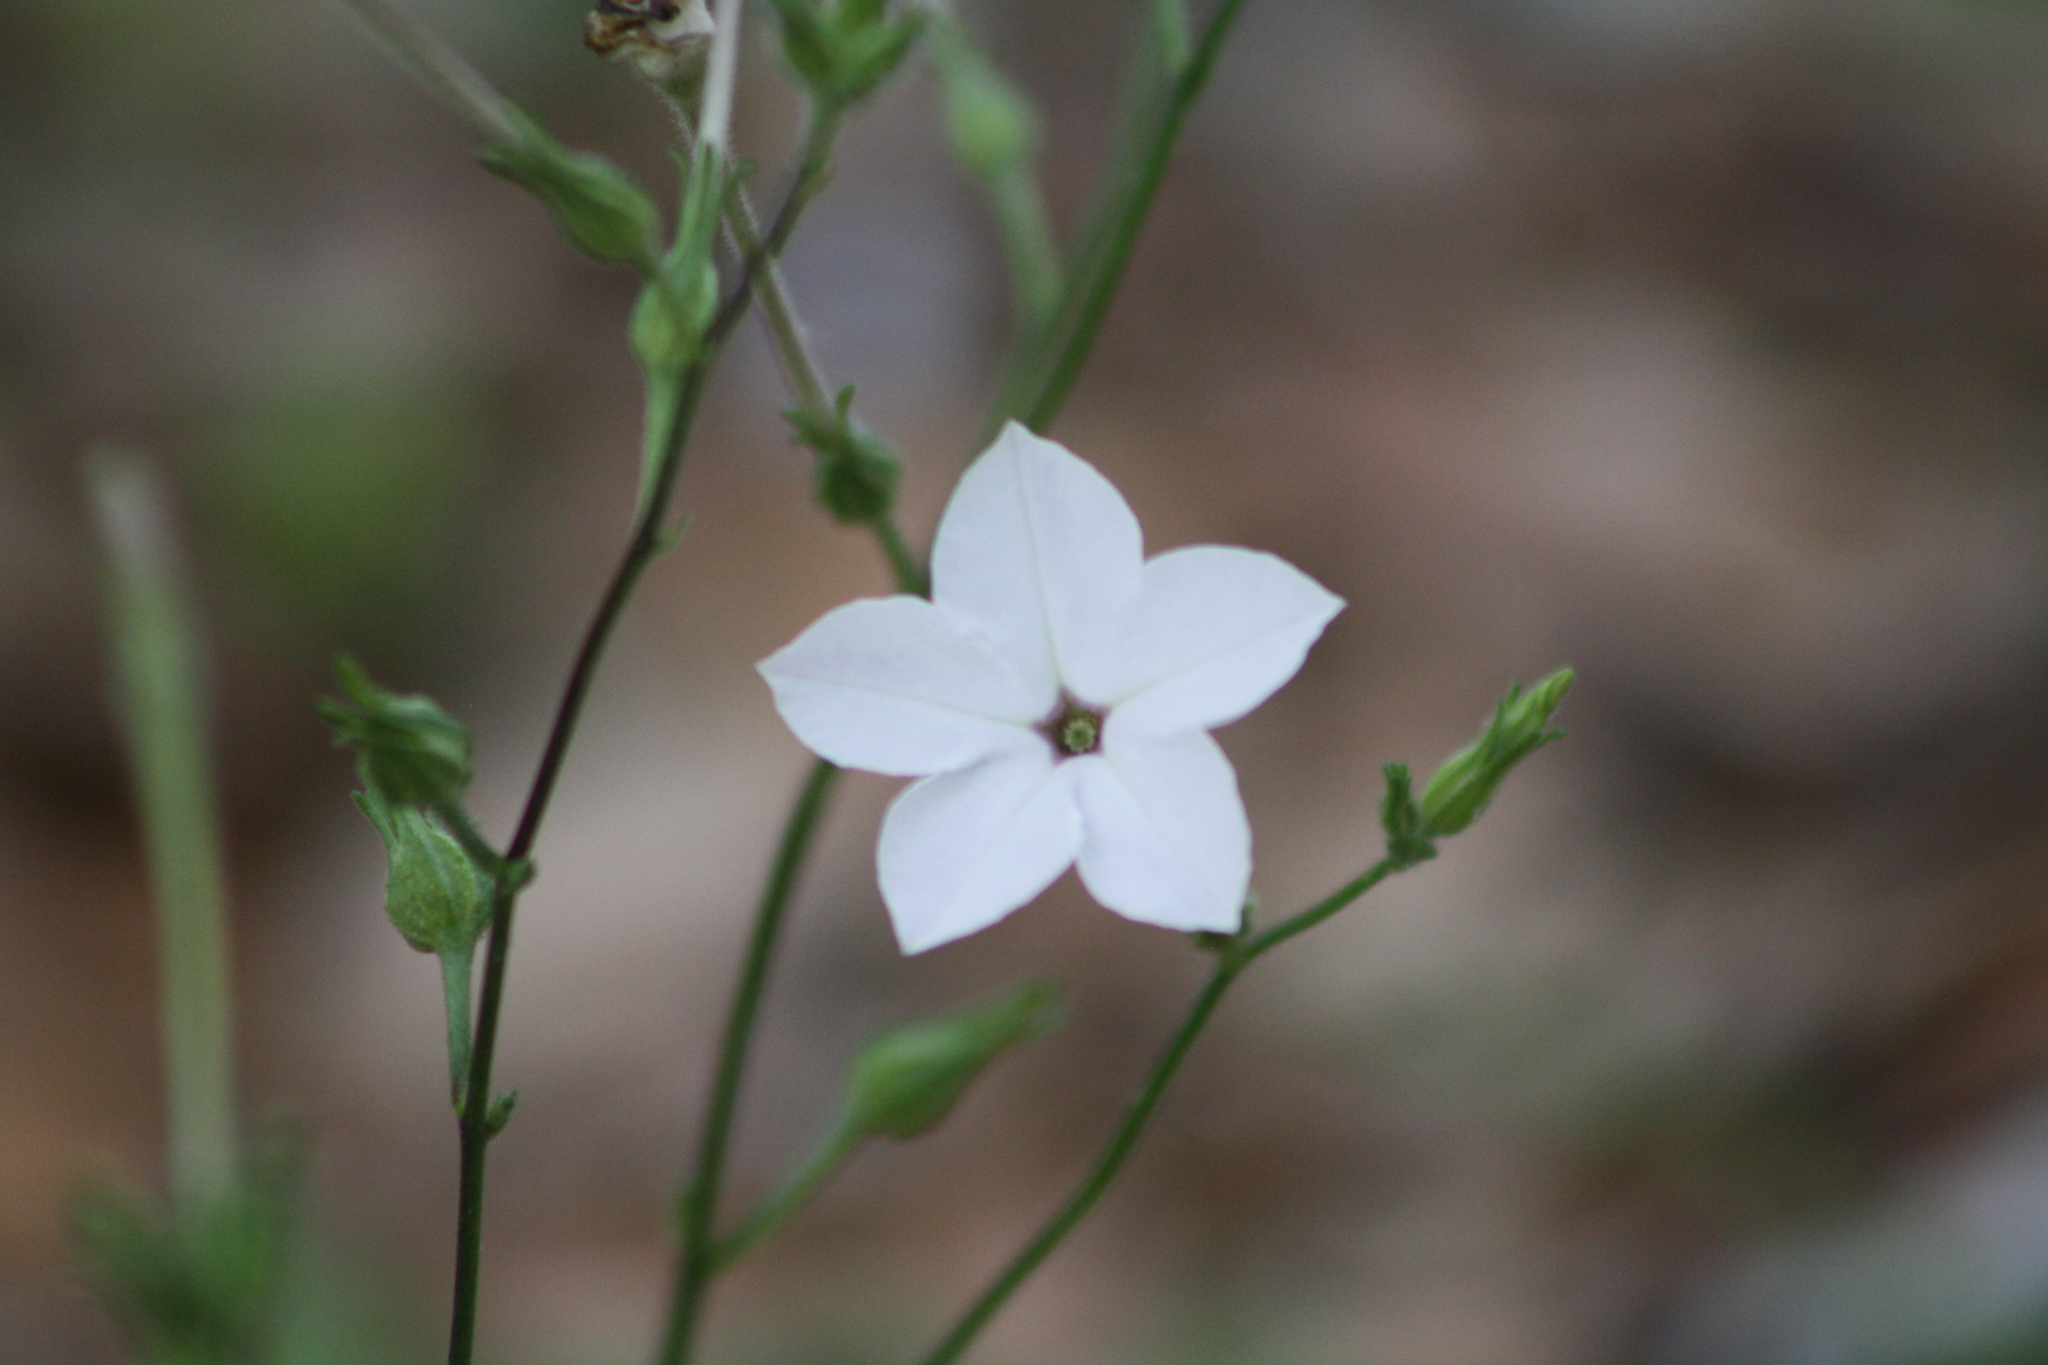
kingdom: Plantae
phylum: Tracheophyta
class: Magnoliopsida
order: Solanales
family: Solanaceae
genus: Nicotiana
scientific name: Nicotiana repanda
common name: Fiddle-leaf tobacco
